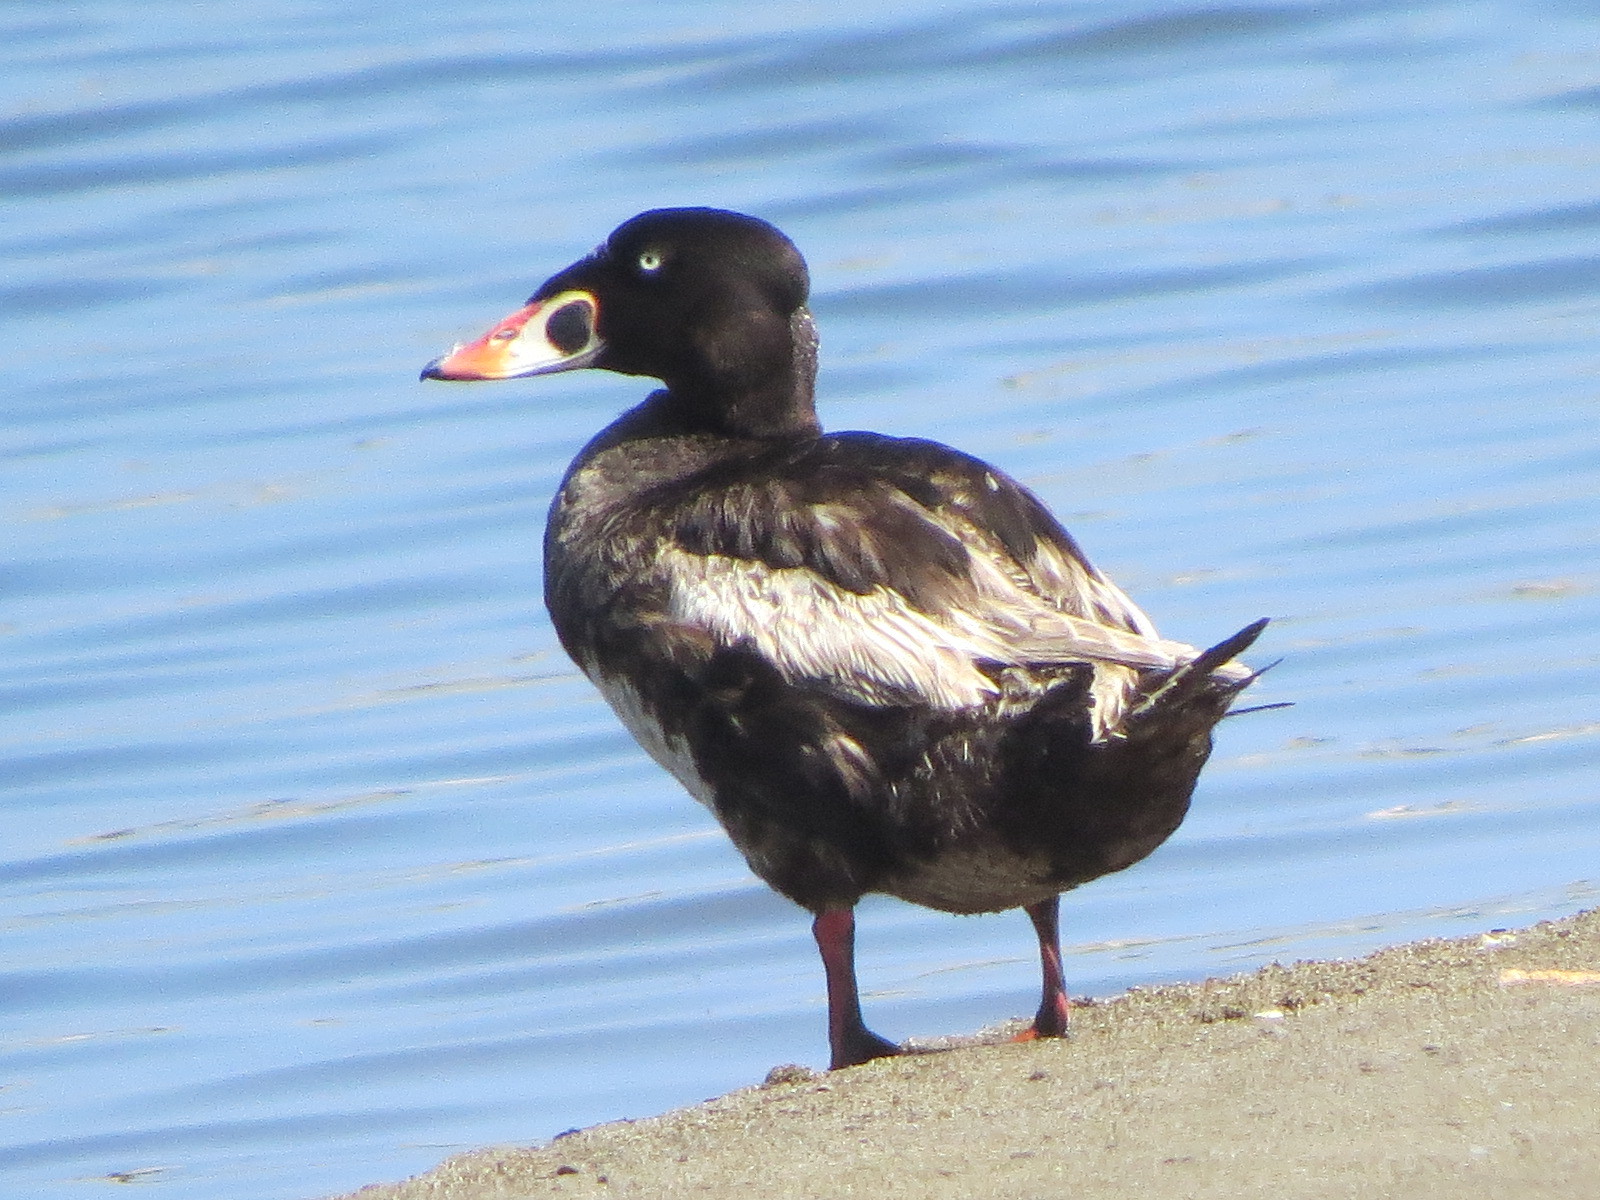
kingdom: Animalia
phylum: Chordata
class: Aves
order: Anseriformes
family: Anatidae
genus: Melanitta
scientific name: Melanitta perspicillata
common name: Surf scoter
